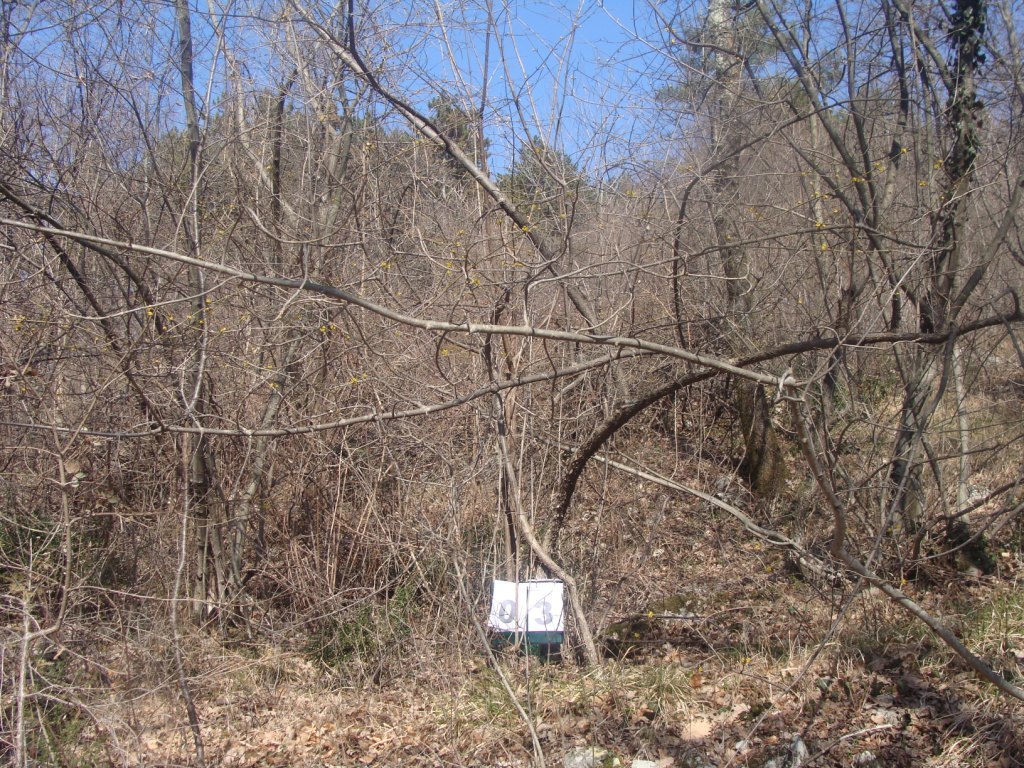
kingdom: Plantae
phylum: Tracheophyta
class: Magnoliopsida
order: Cornales
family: Cornaceae
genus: Cornus
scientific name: Cornus mas
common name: Cornelian-cherry
